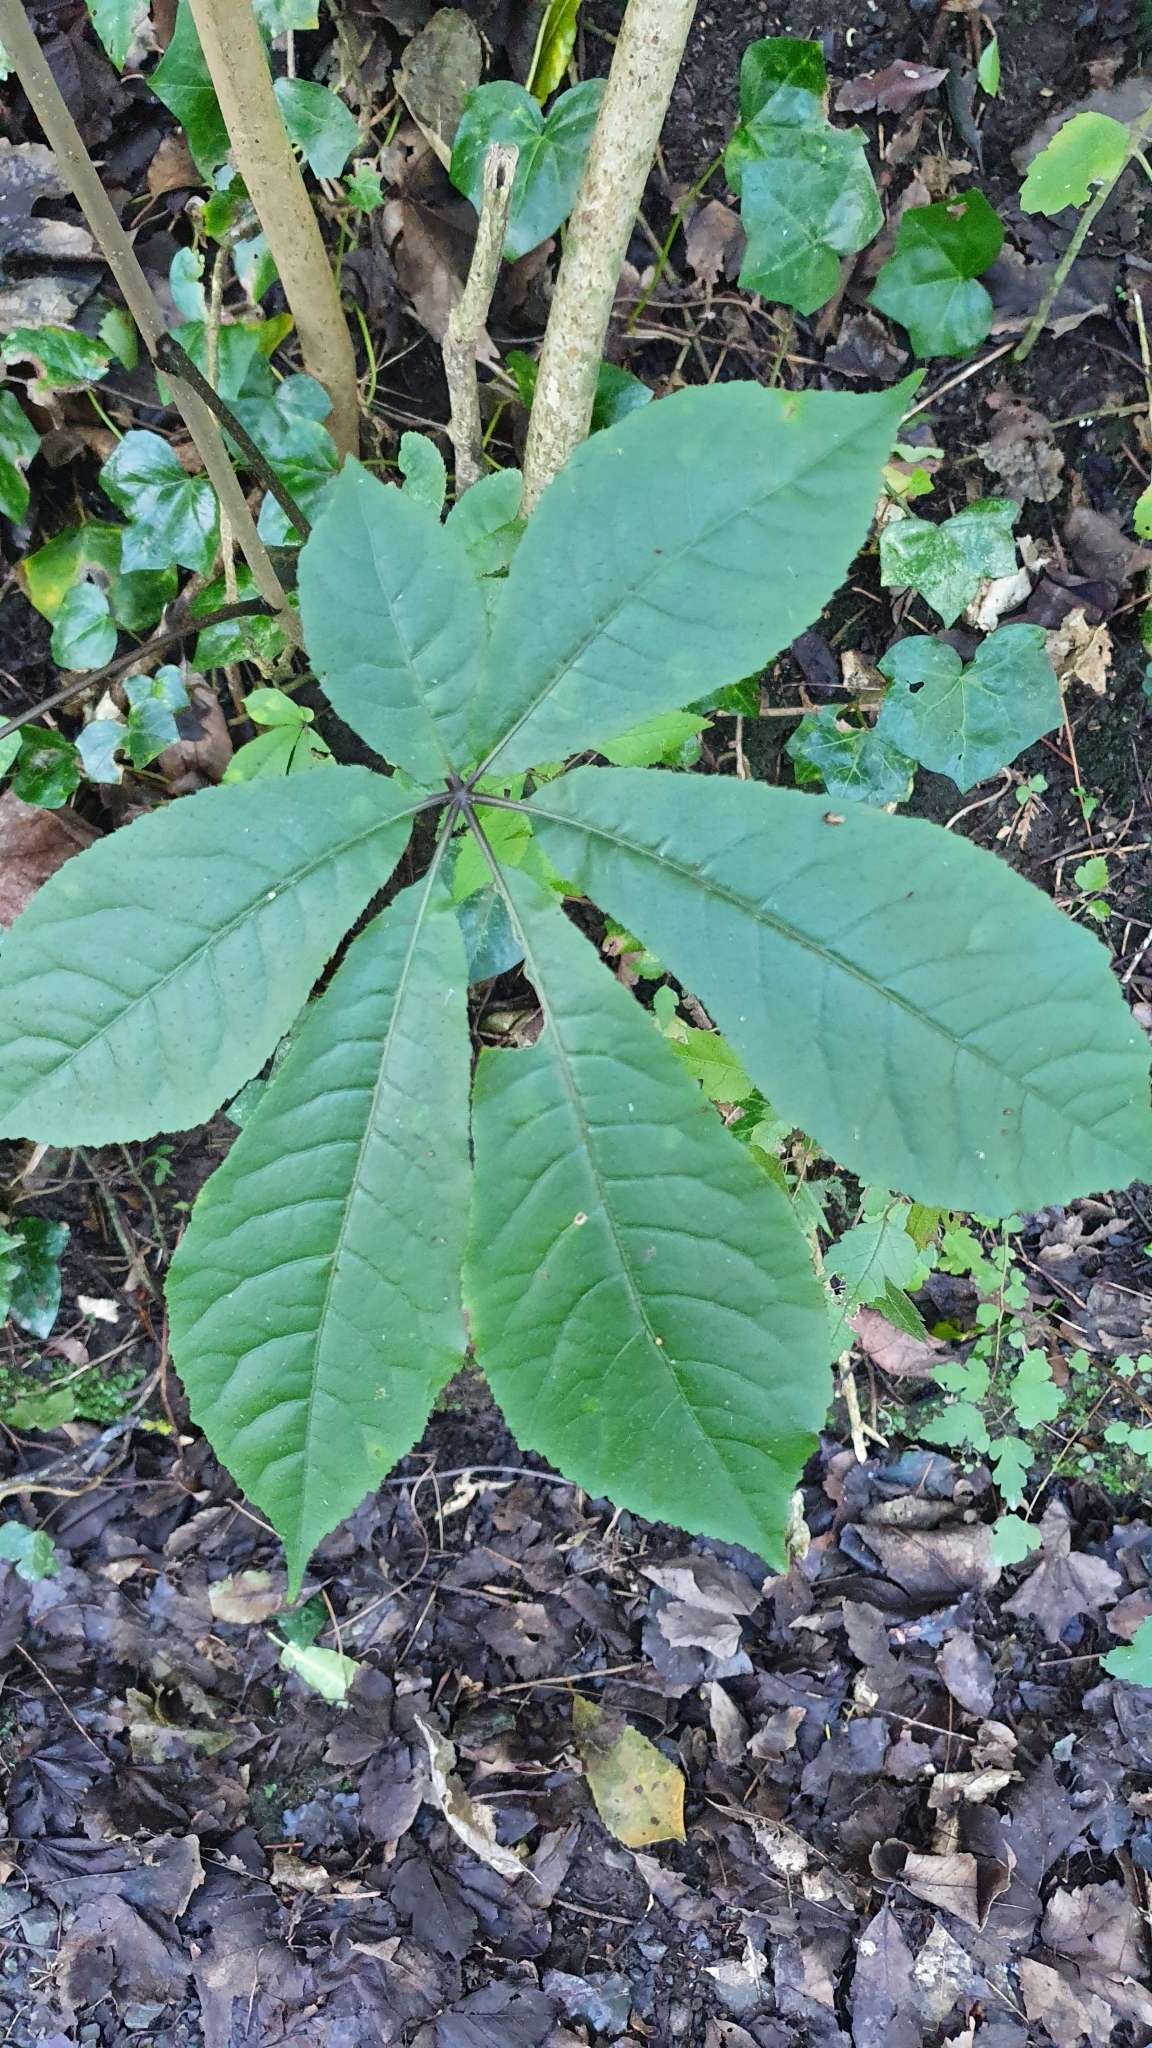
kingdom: Plantae
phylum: Tracheophyta
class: Magnoliopsida
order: Apiales
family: Araliaceae
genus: Schefflera
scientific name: Schefflera digitata
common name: Pate
